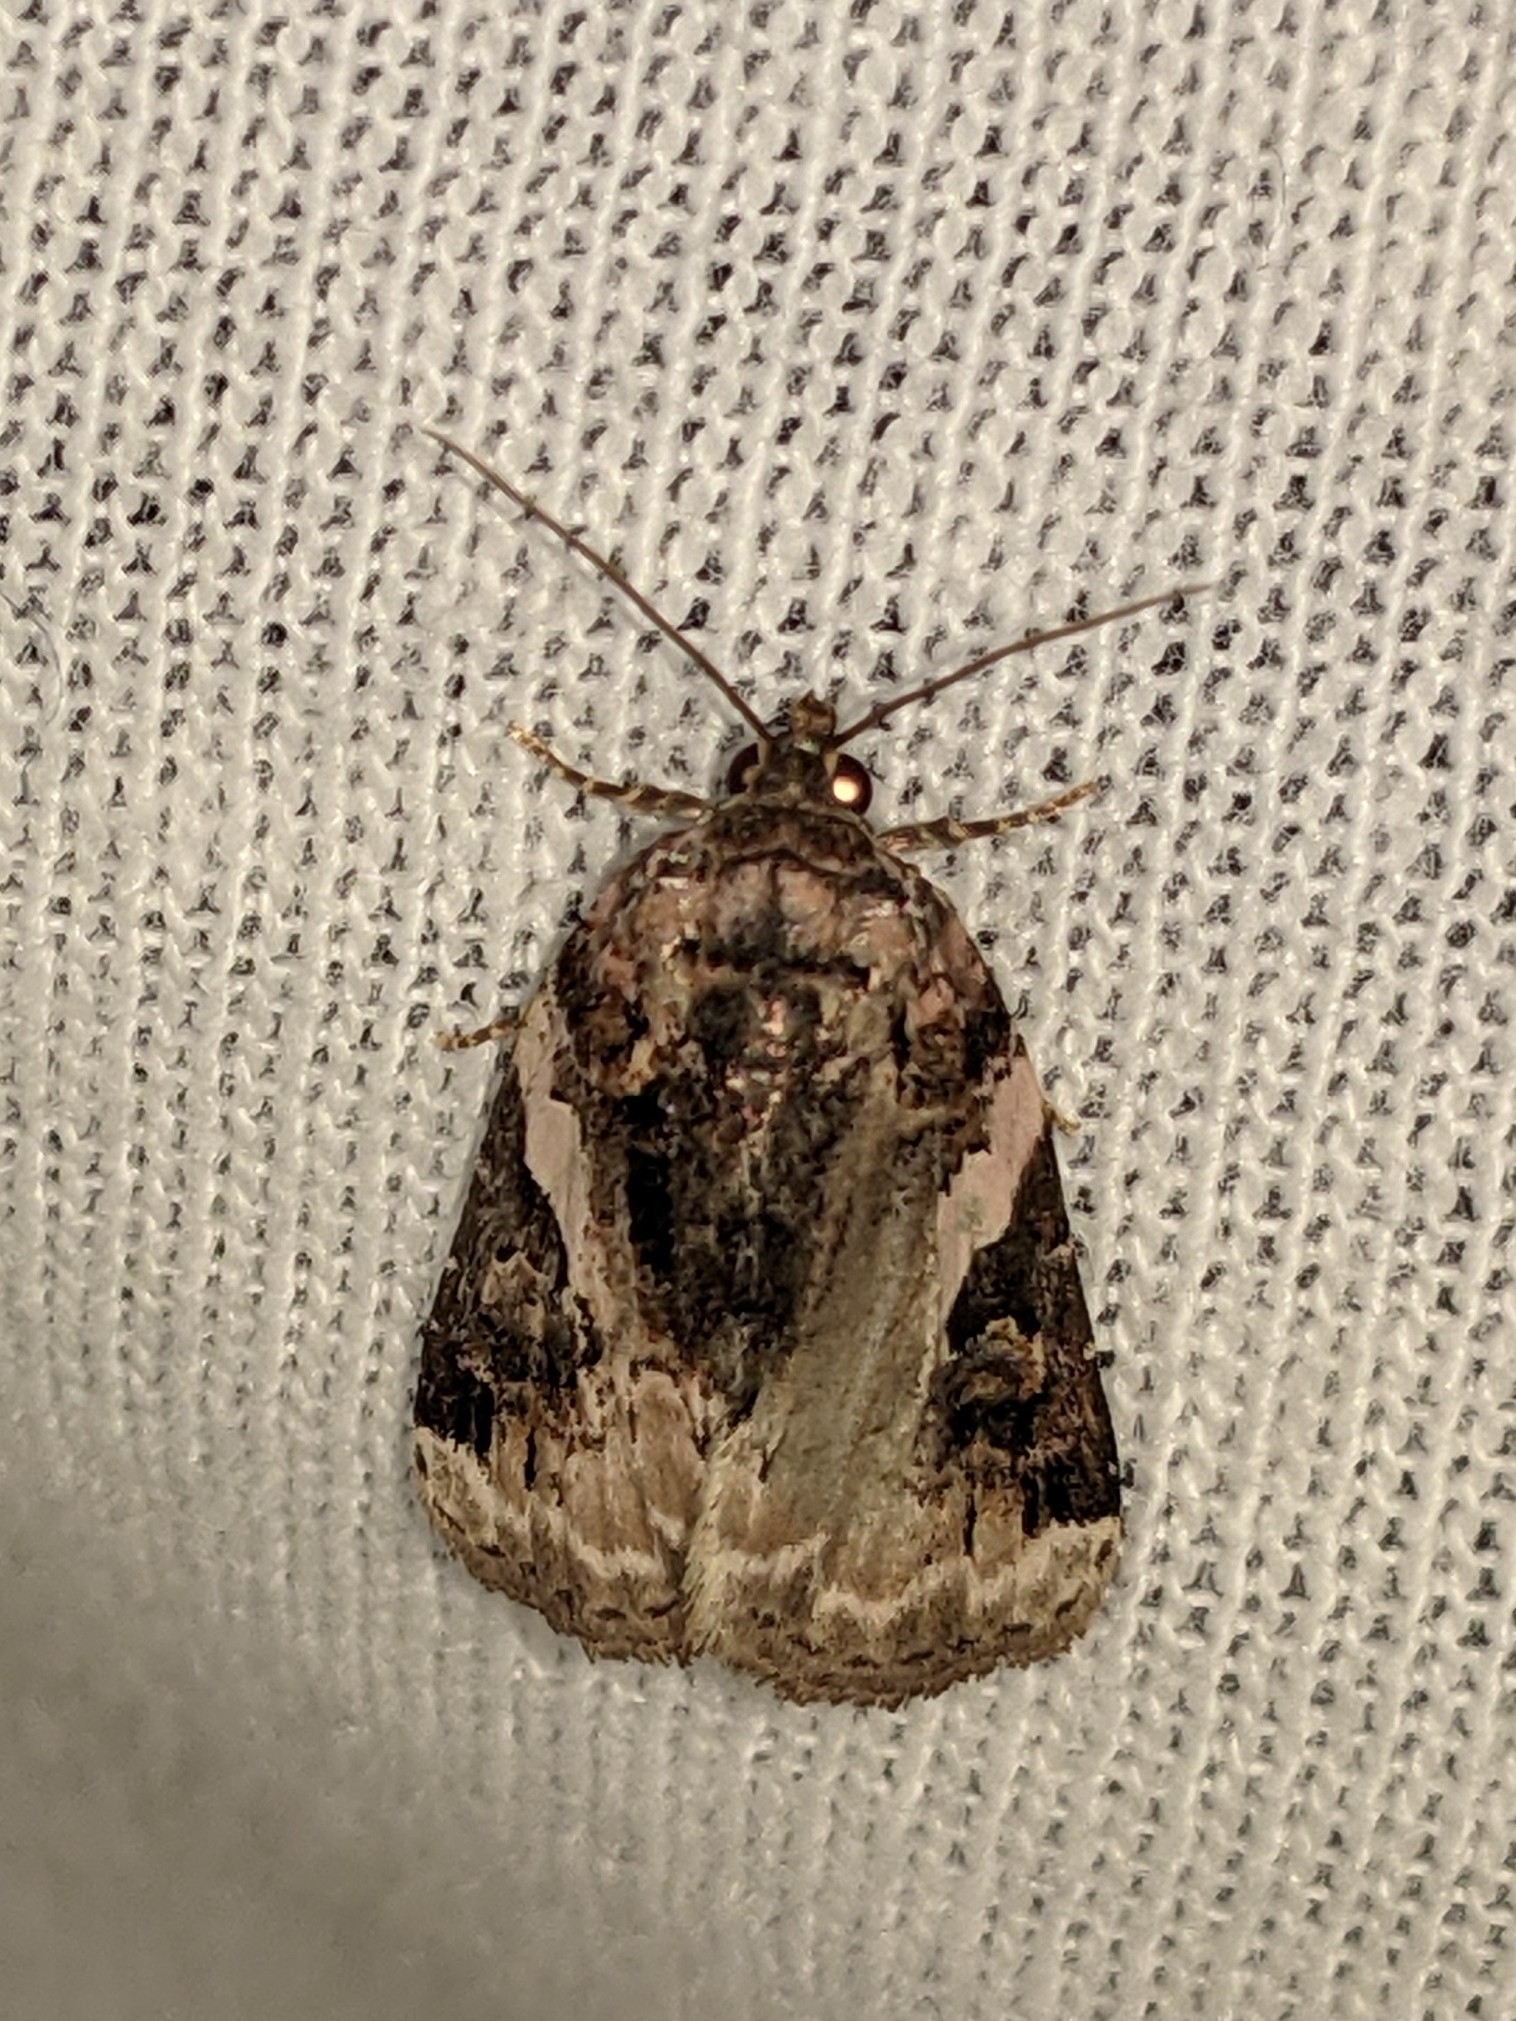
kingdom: Animalia
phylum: Arthropoda
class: Insecta
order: Lepidoptera
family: Noctuidae
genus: Pseudeustrotia
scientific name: Pseudeustrotia carneola
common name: Pink-barred lithacodia moth
